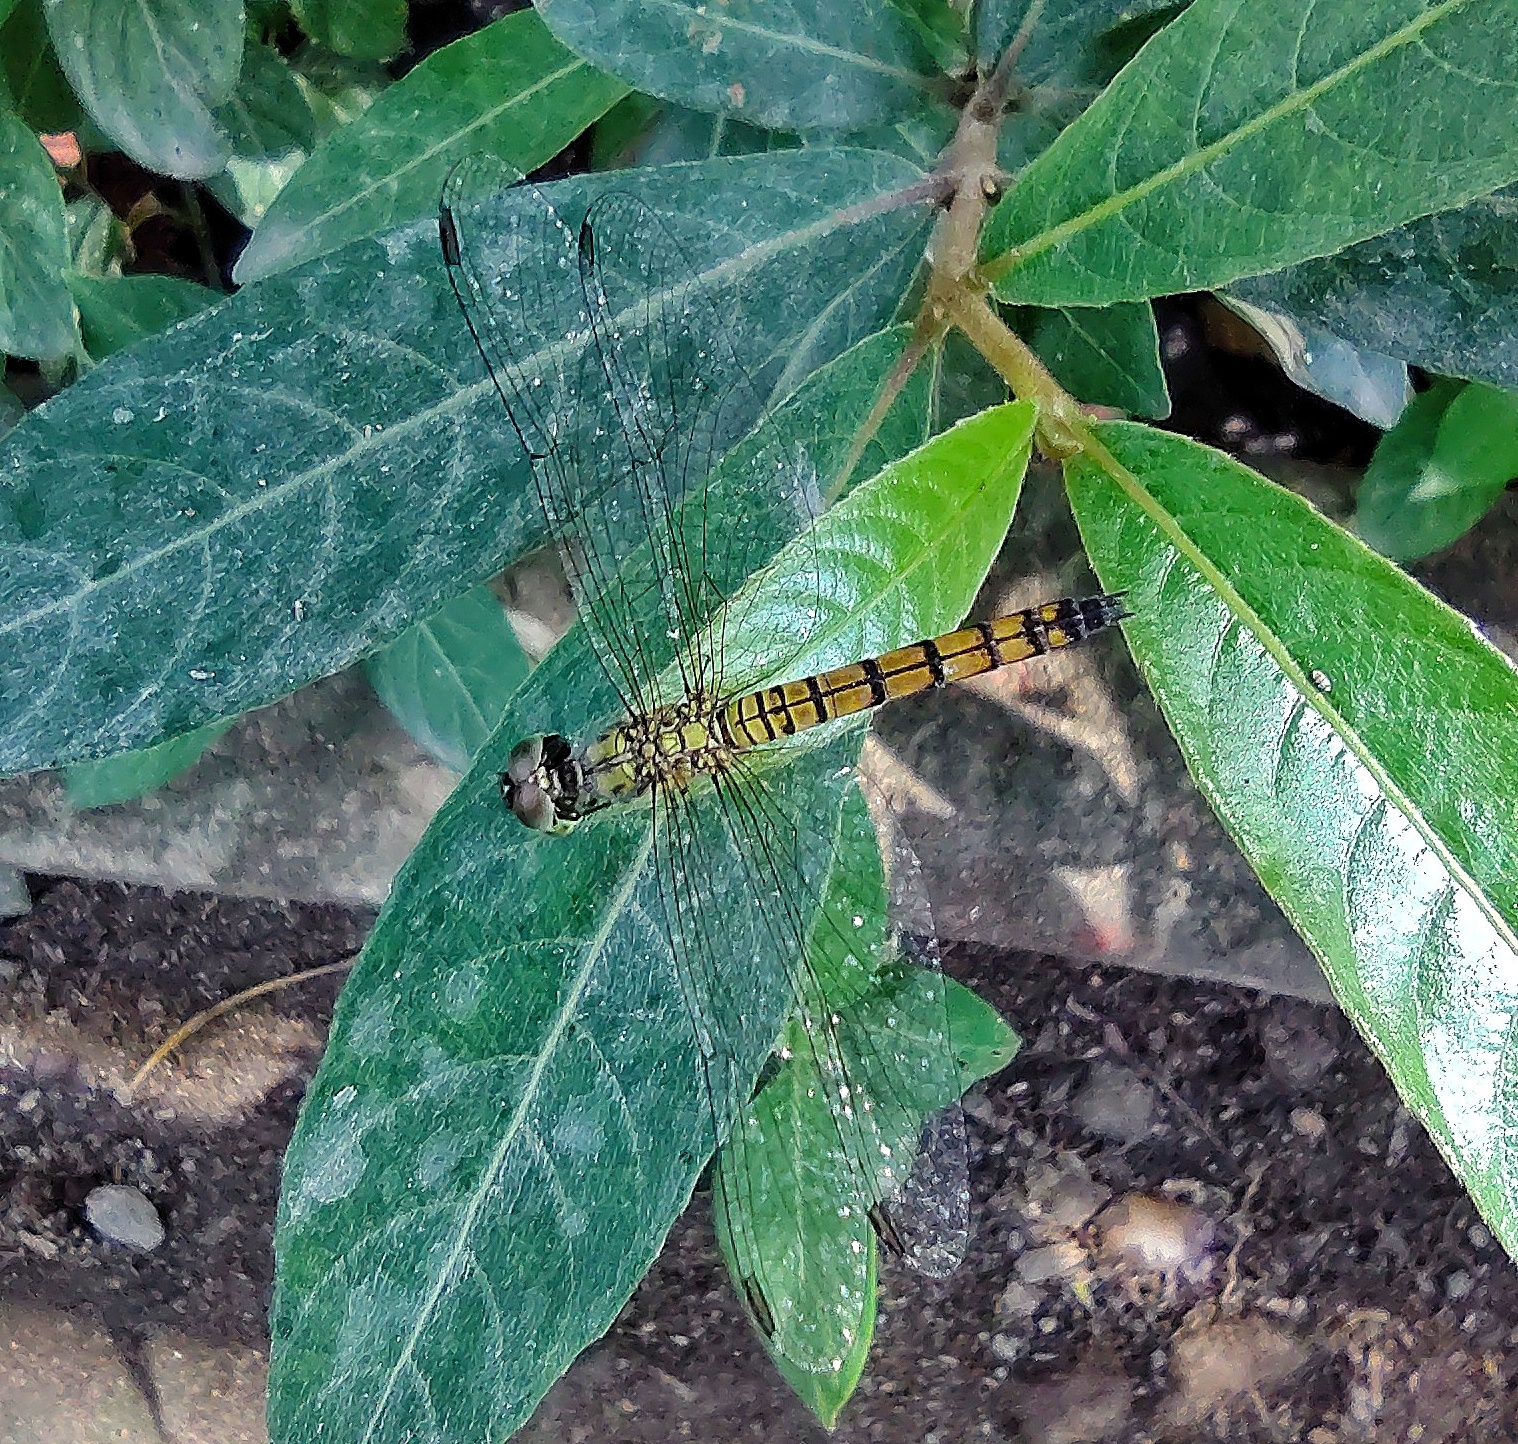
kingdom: Animalia
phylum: Arthropoda
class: Insecta
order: Odonata
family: Libellulidae
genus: Brachydiplax
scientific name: Brachydiplax chalybea
